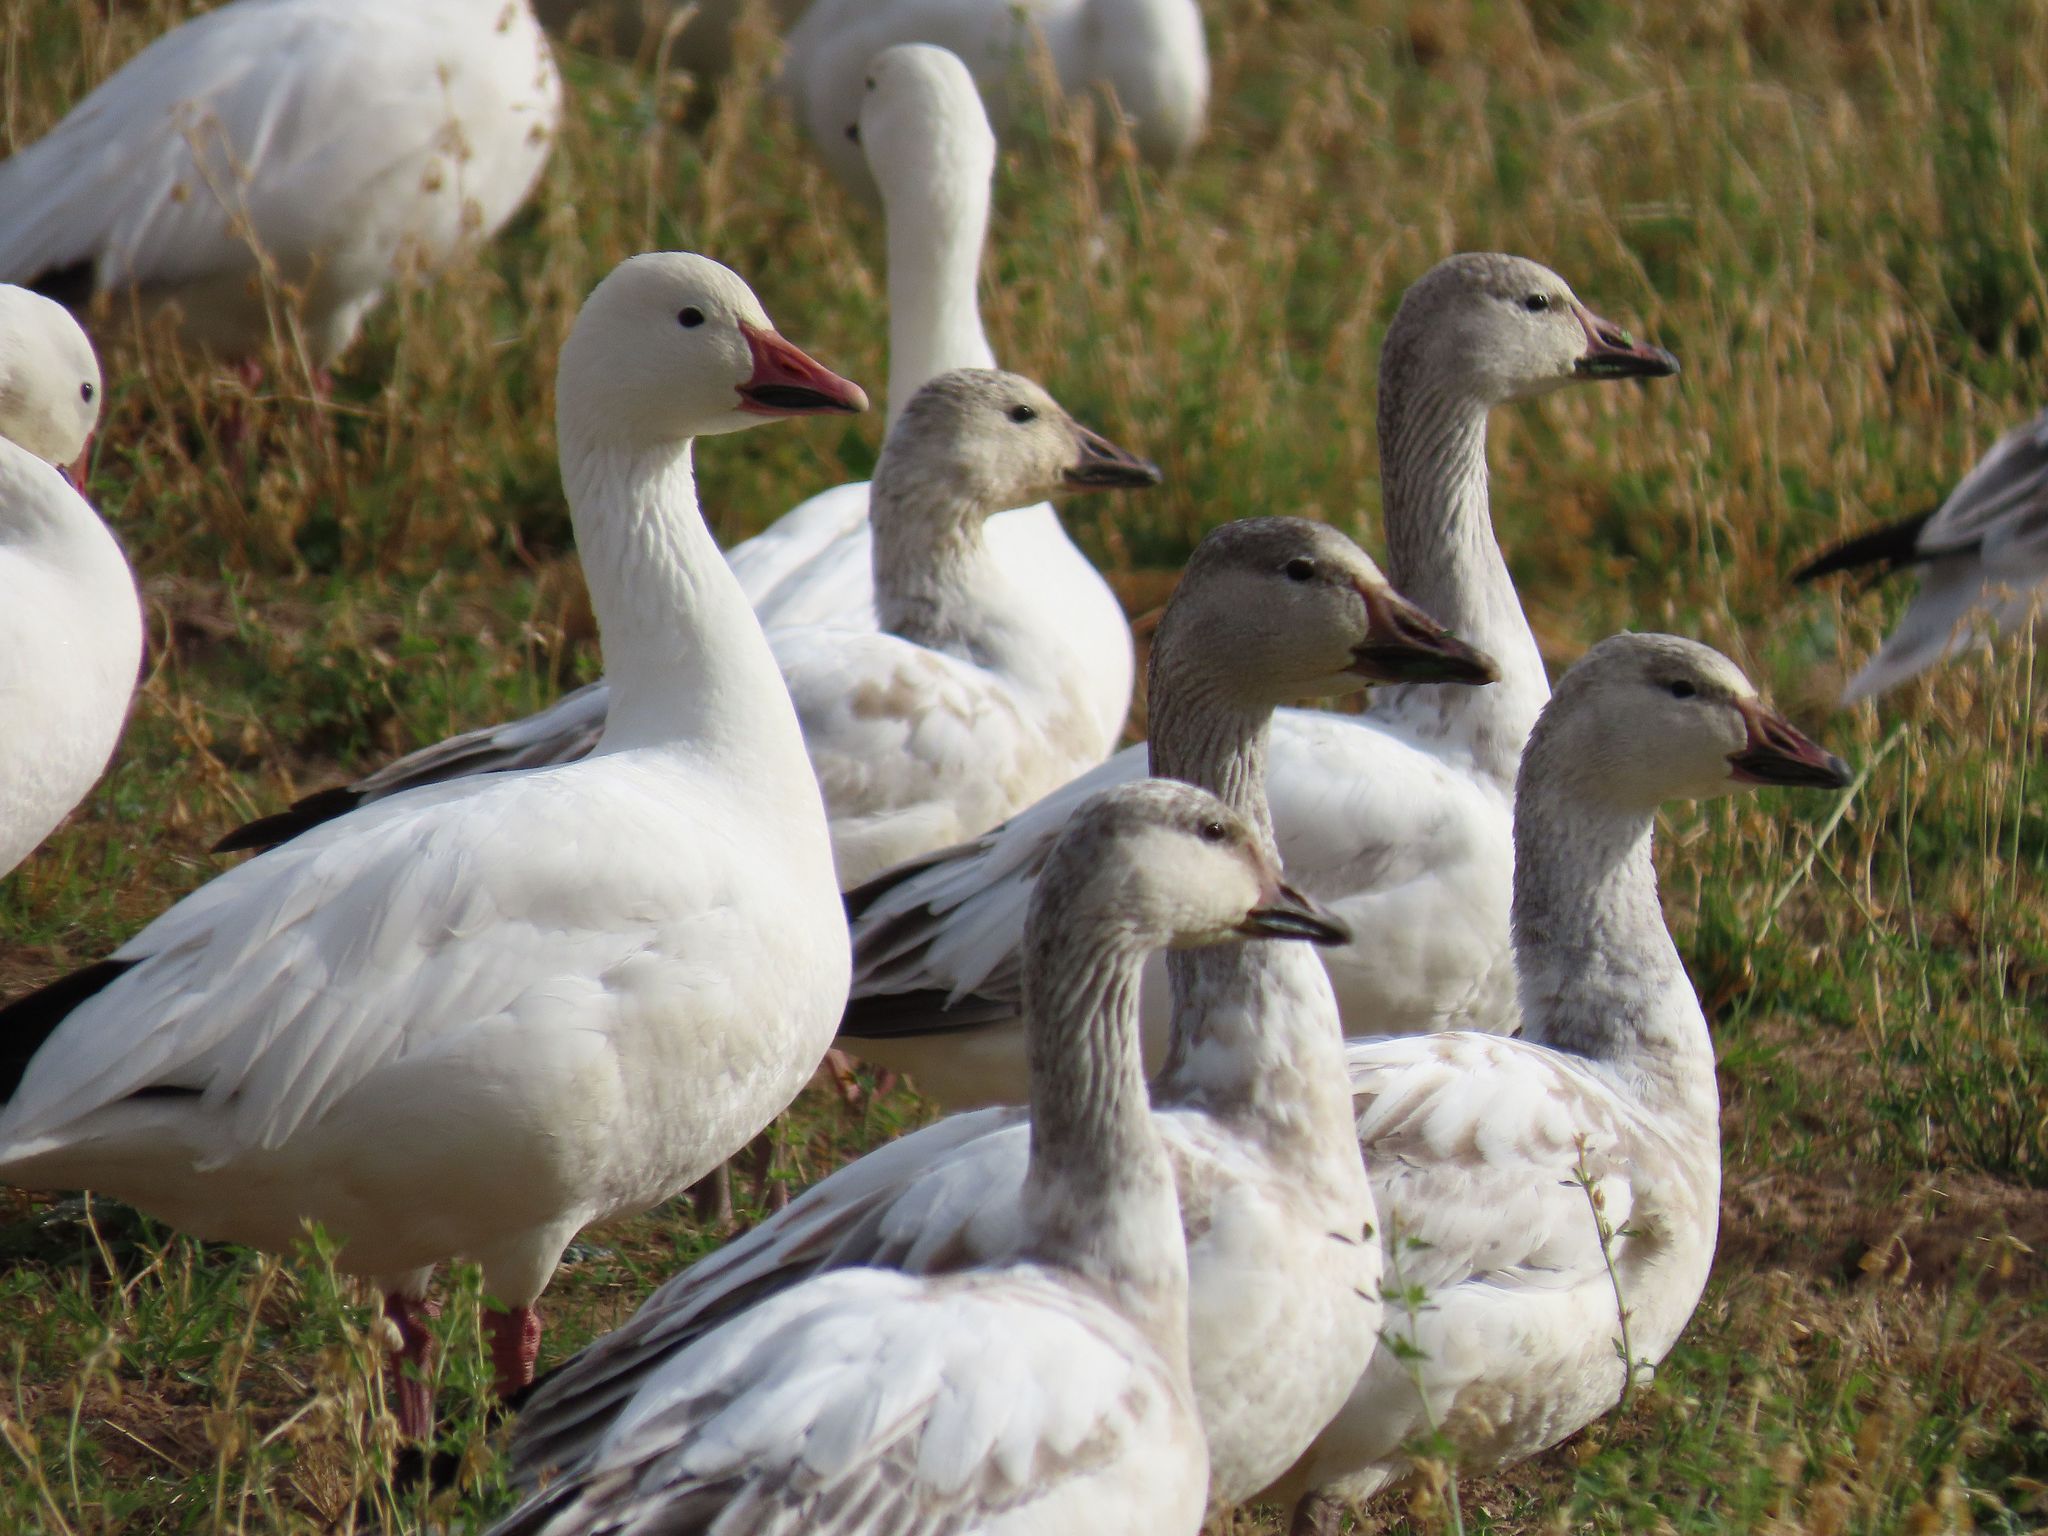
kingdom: Animalia
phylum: Chordata
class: Aves
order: Anseriformes
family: Anatidae
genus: Anser
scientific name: Anser caerulescens
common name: Snow goose
